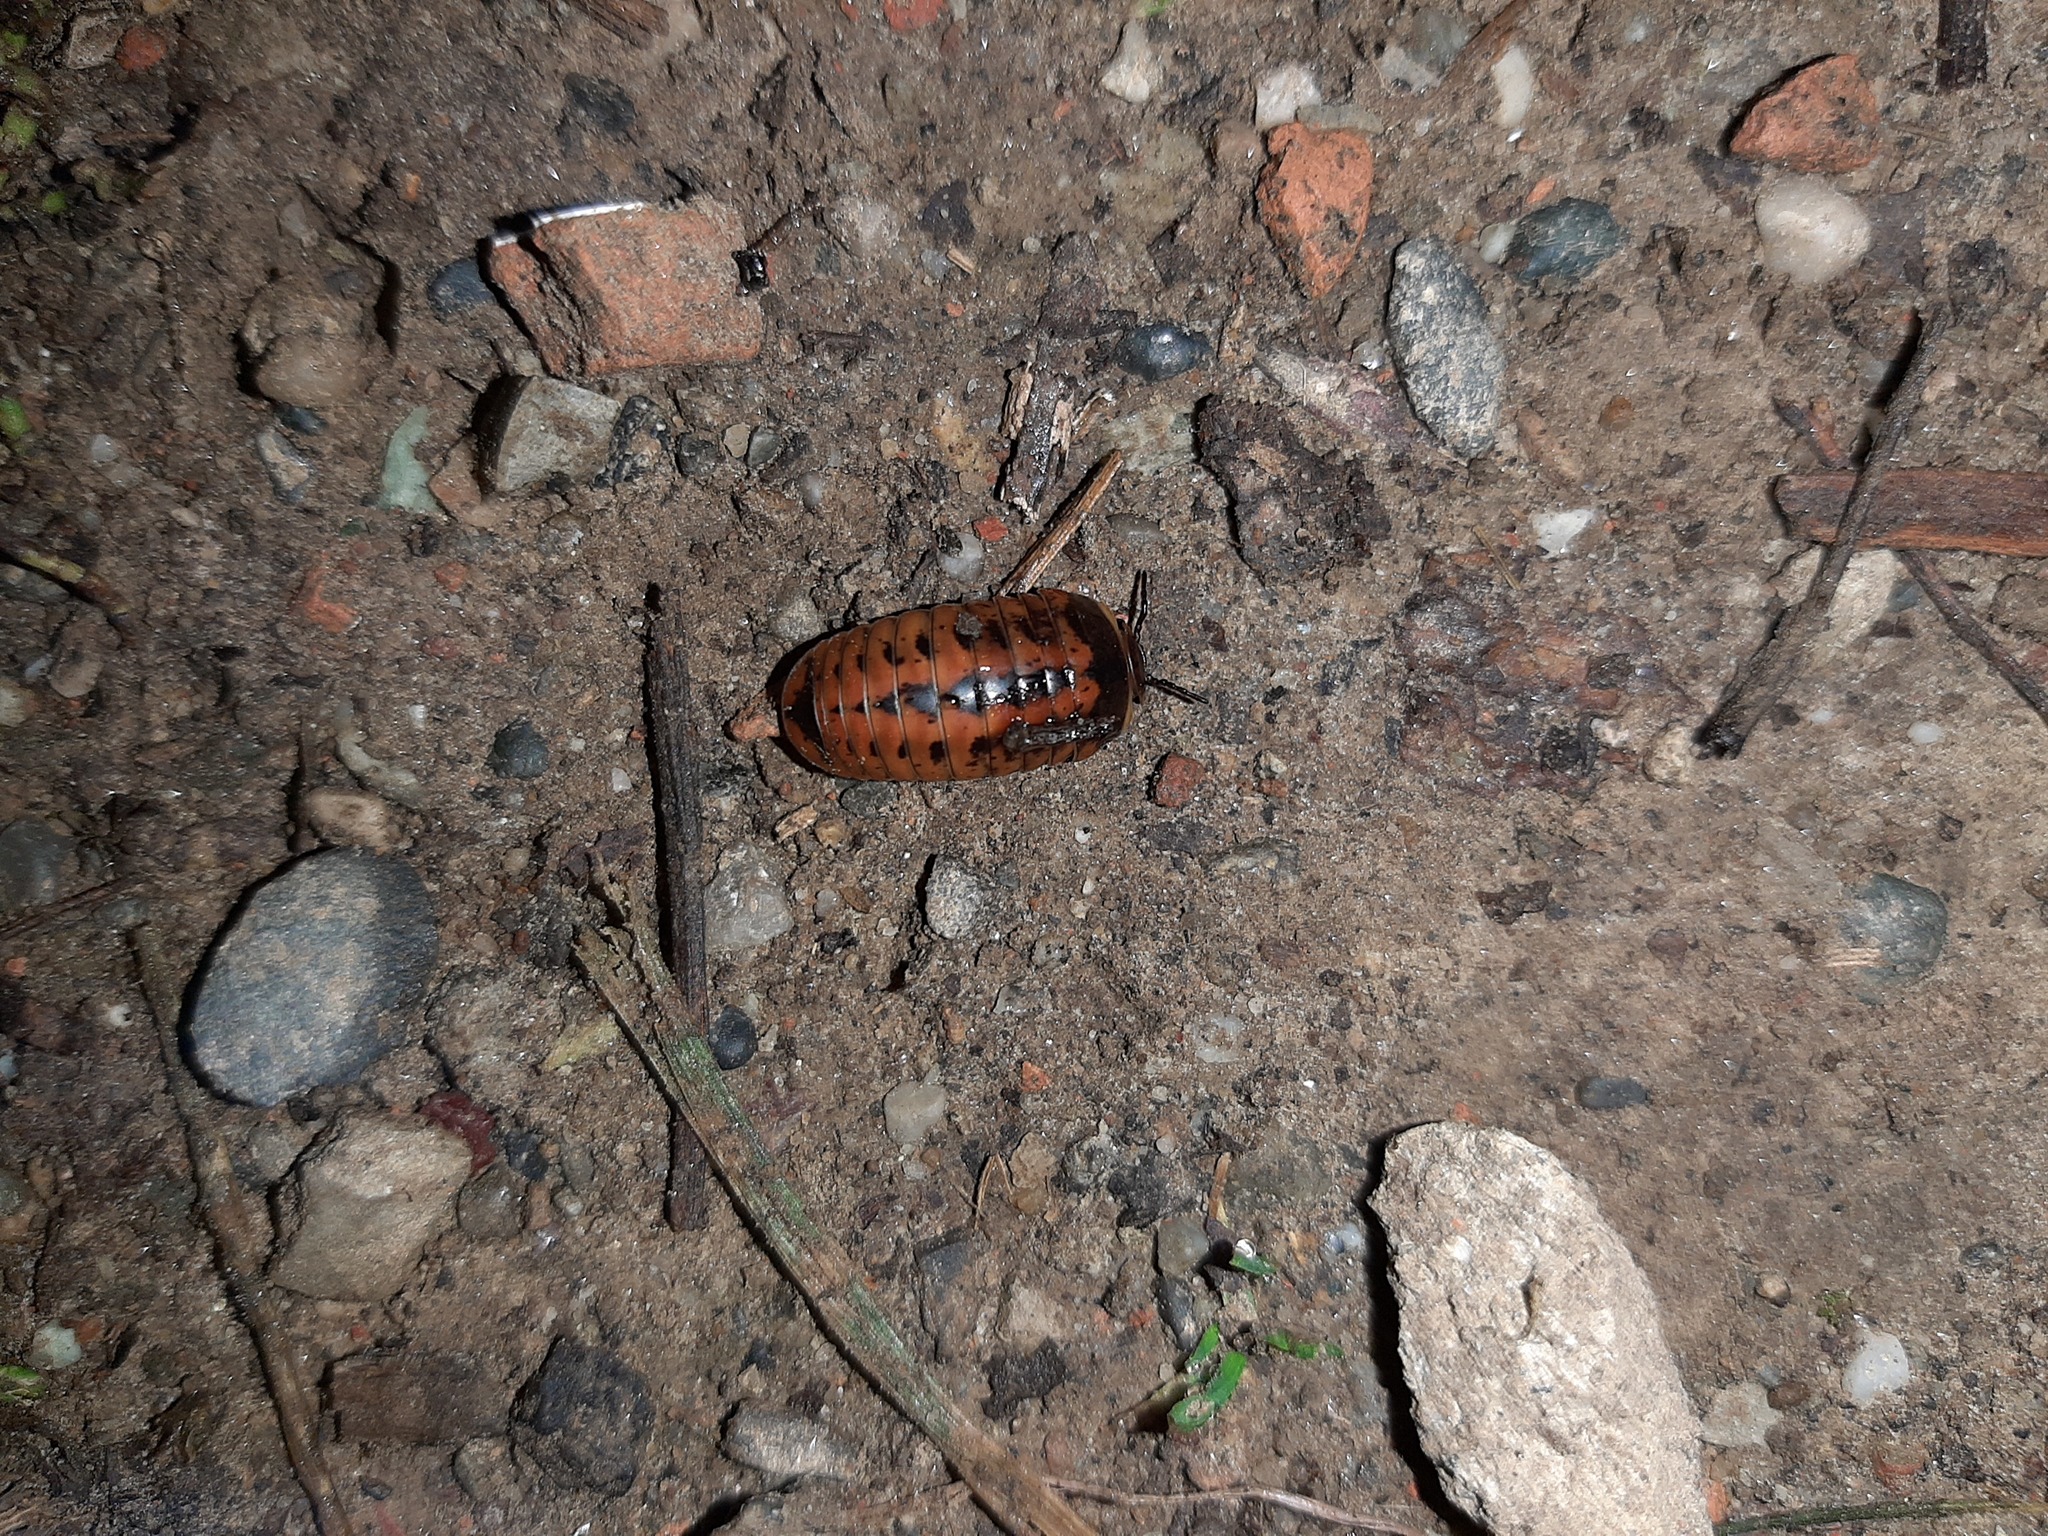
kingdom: Animalia
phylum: Arthropoda
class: Diplopoda
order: Glomerida
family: Glomeridae
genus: Glomeris
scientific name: Glomeris klugii
